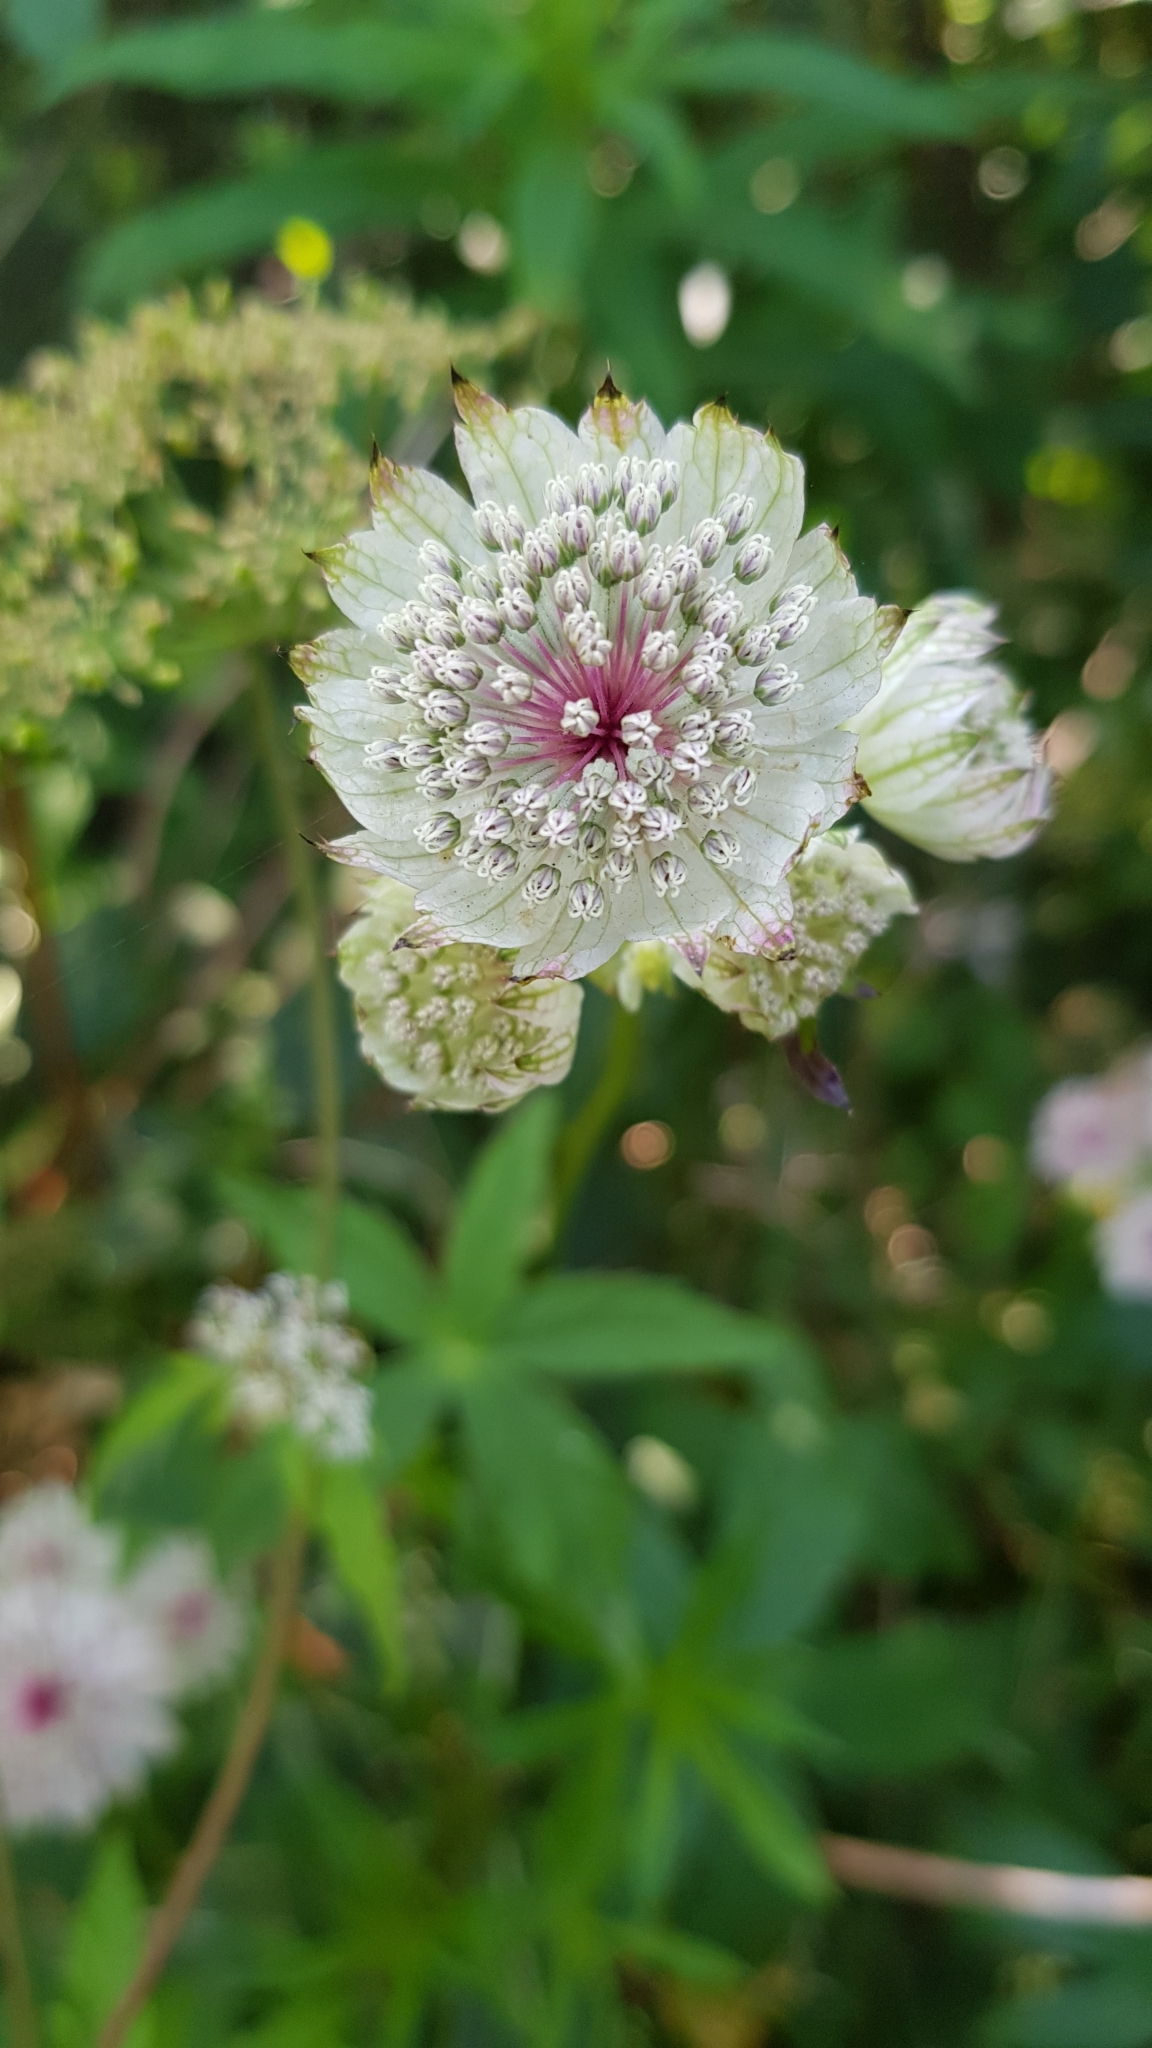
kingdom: Plantae
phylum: Tracheophyta
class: Magnoliopsida
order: Apiales
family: Apiaceae
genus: Astrantia
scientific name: Astrantia major
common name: Greater masterwort
